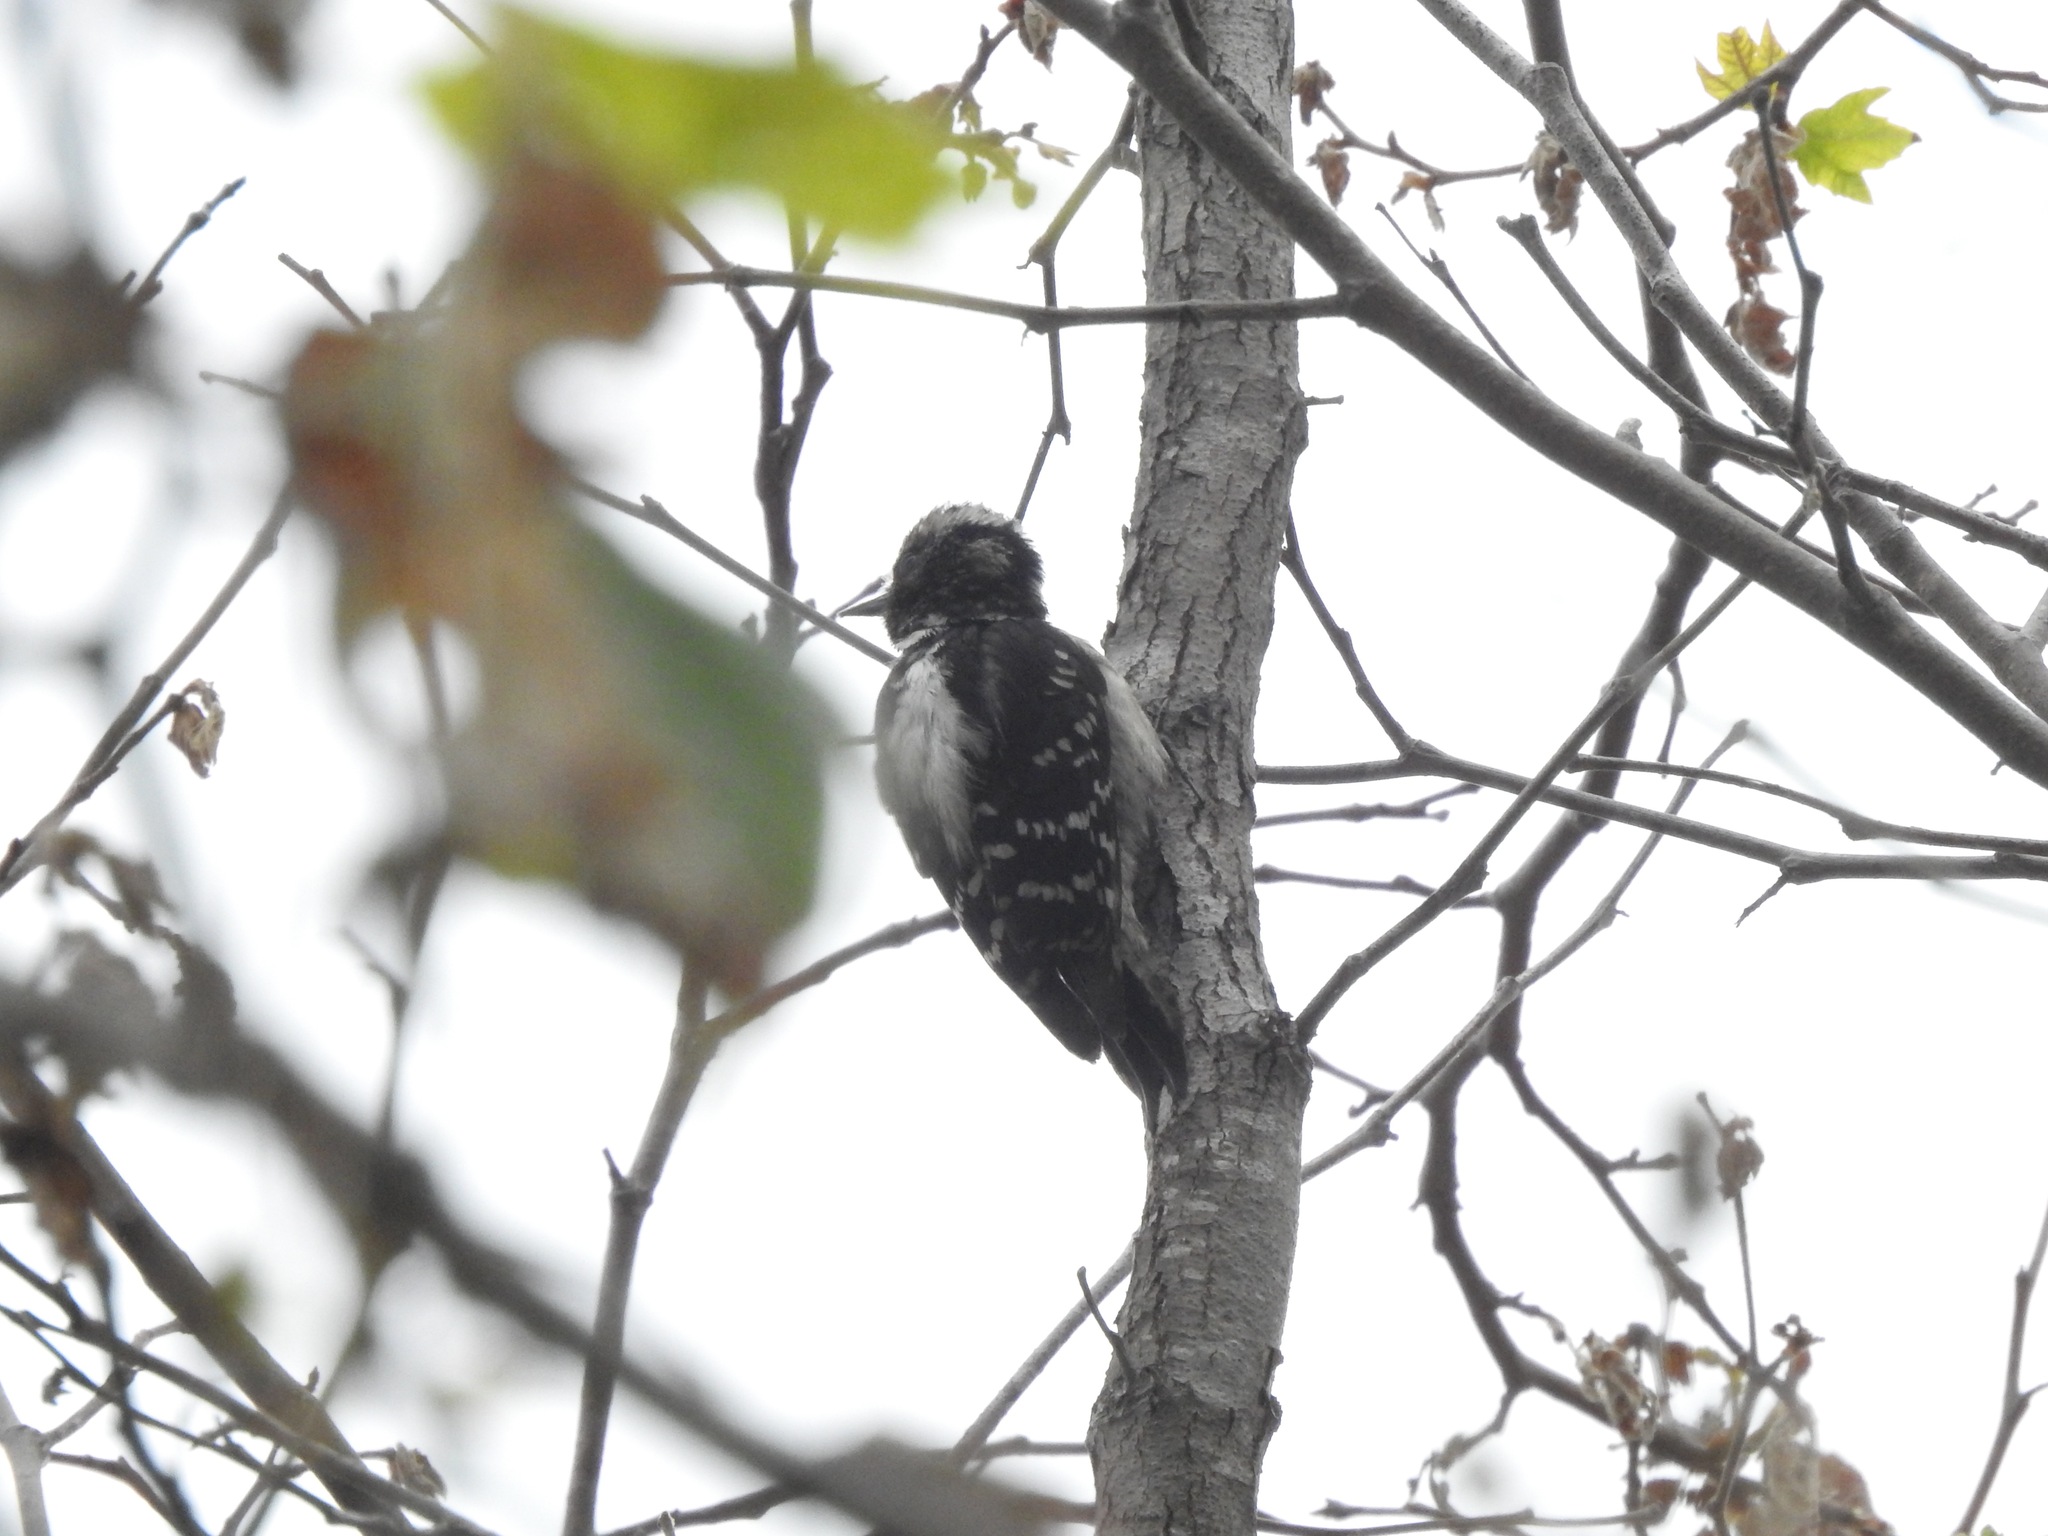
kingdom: Animalia
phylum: Chordata
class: Aves
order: Piciformes
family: Picidae
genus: Dryobates
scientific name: Dryobates pubescens
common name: Downy woodpecker
